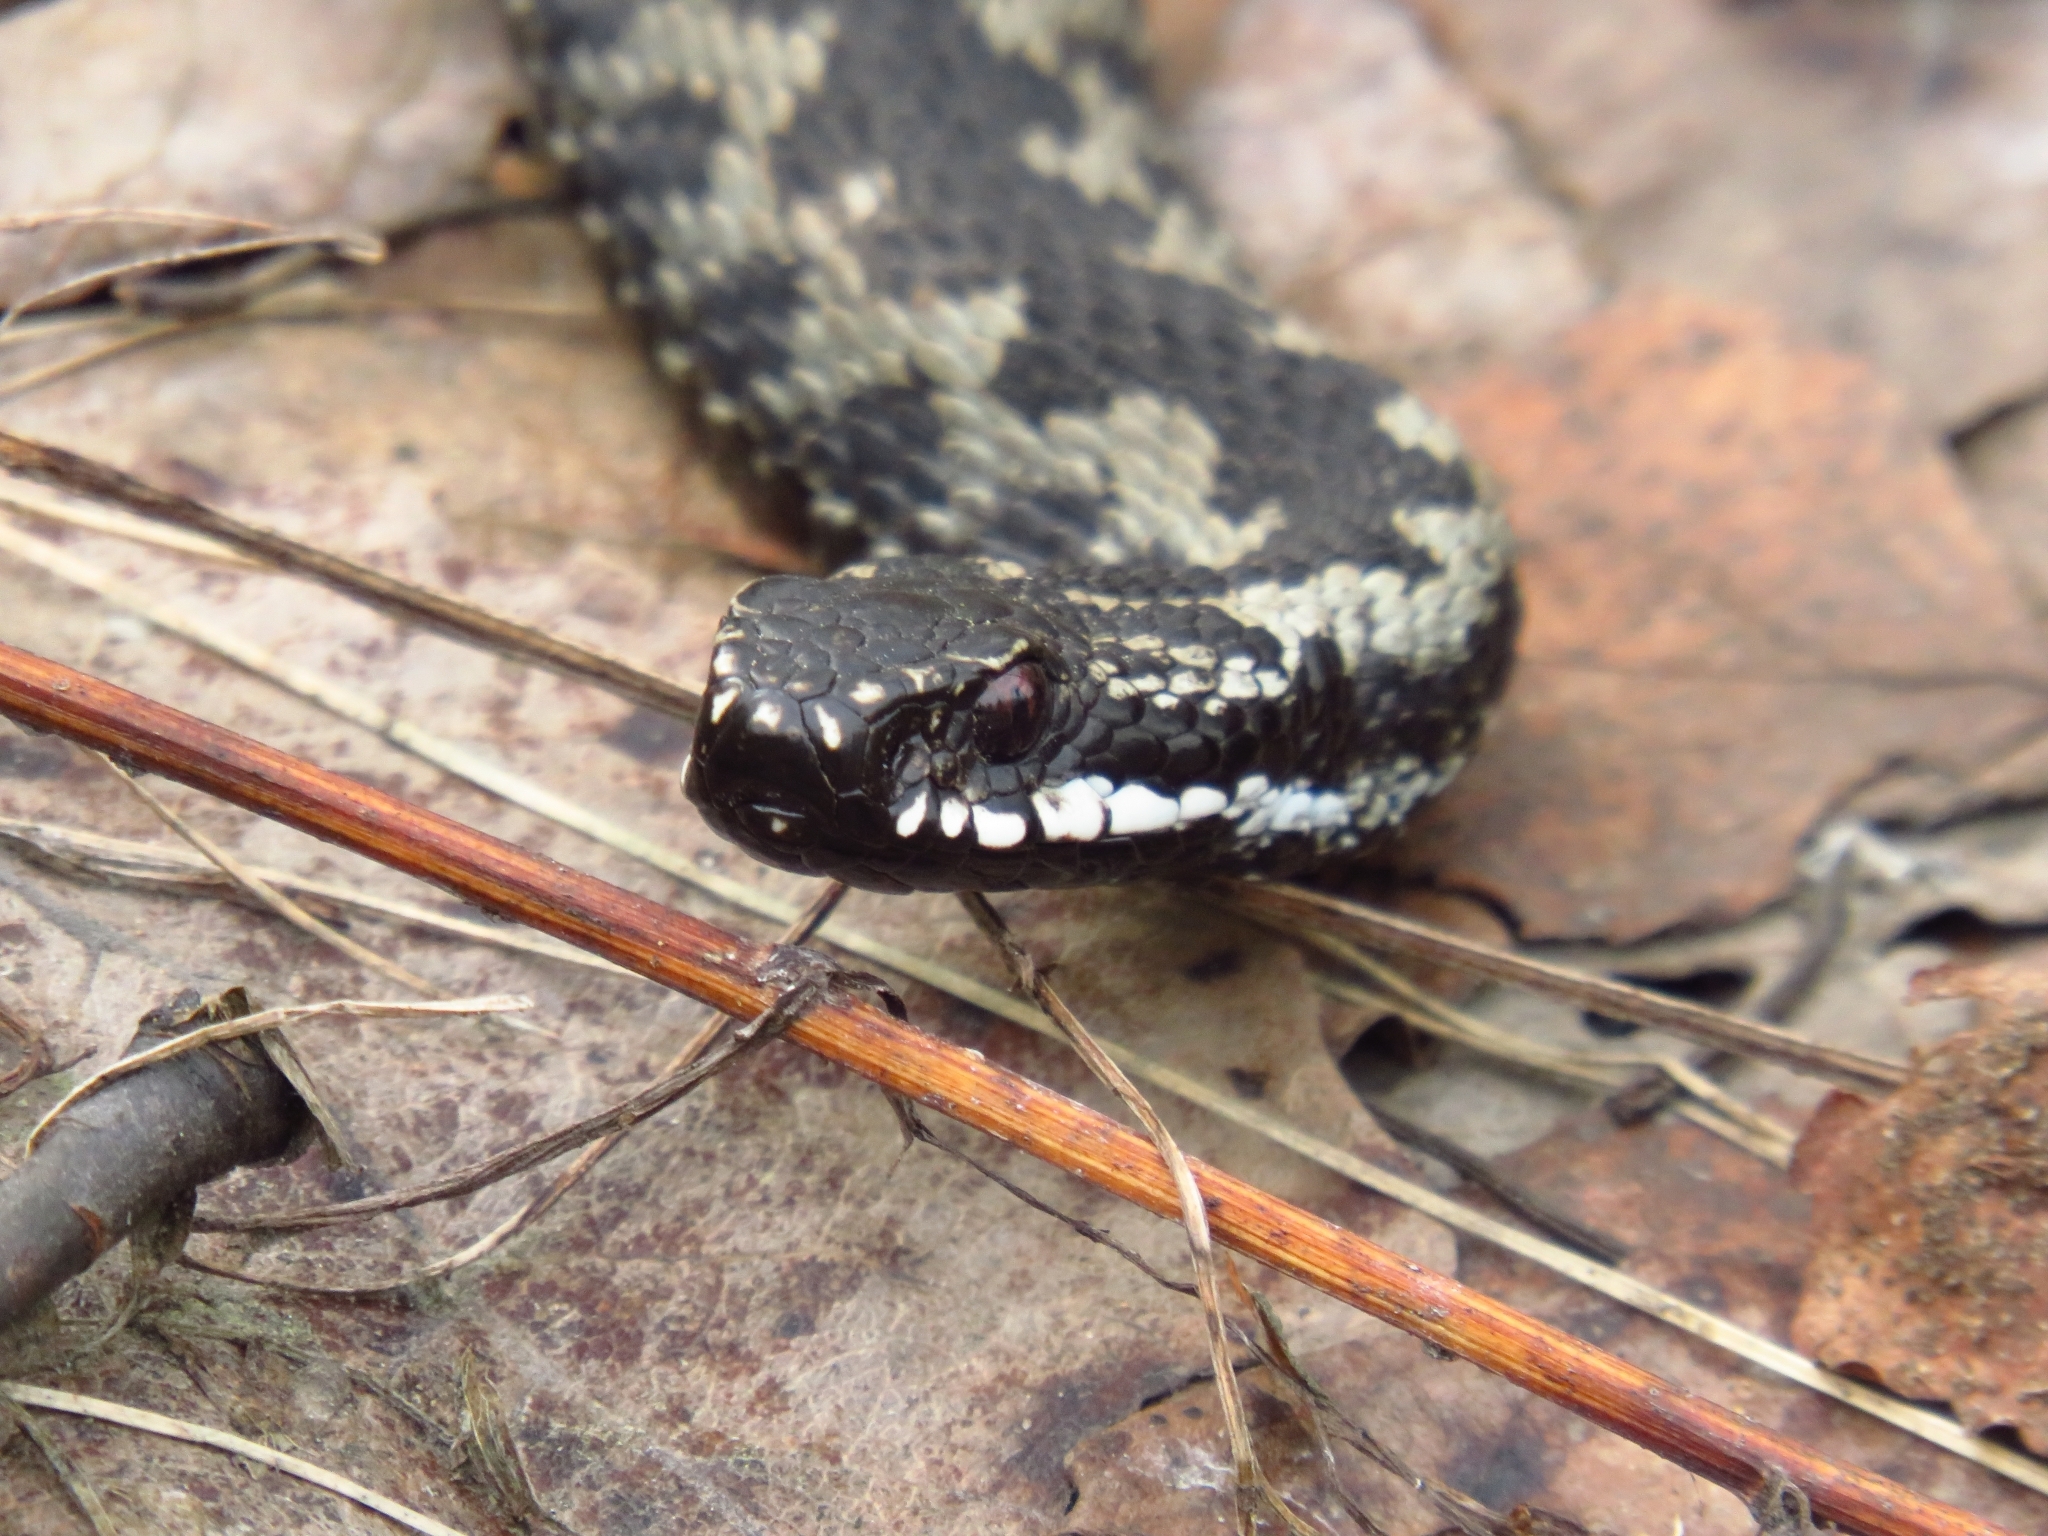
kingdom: Animalia
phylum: Chordata
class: Squamata
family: Viperidae
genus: Vipera
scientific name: Vipera berus
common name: Adder
